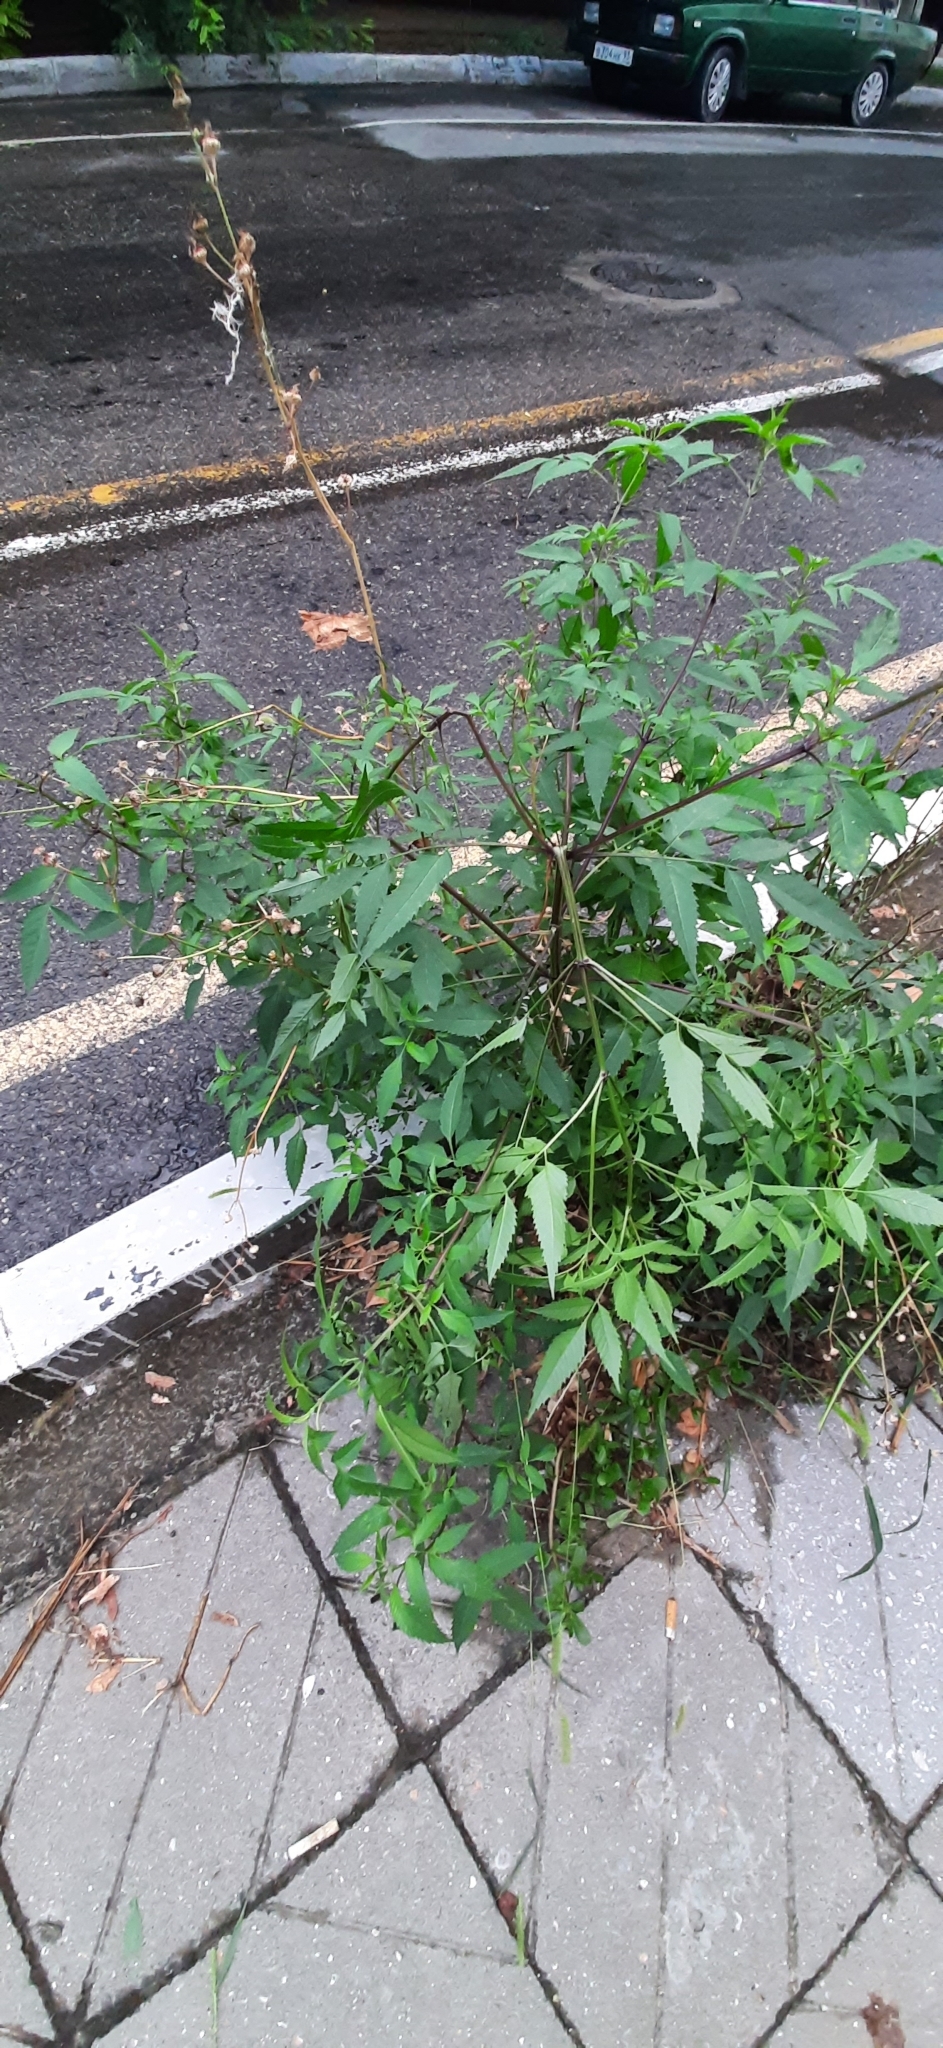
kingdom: Plantae
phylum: Tracheophyta
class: Magnoliopsida
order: Asterales
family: Asteraceae
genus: Bidens
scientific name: Bidens frondosa
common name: Beggarticks
